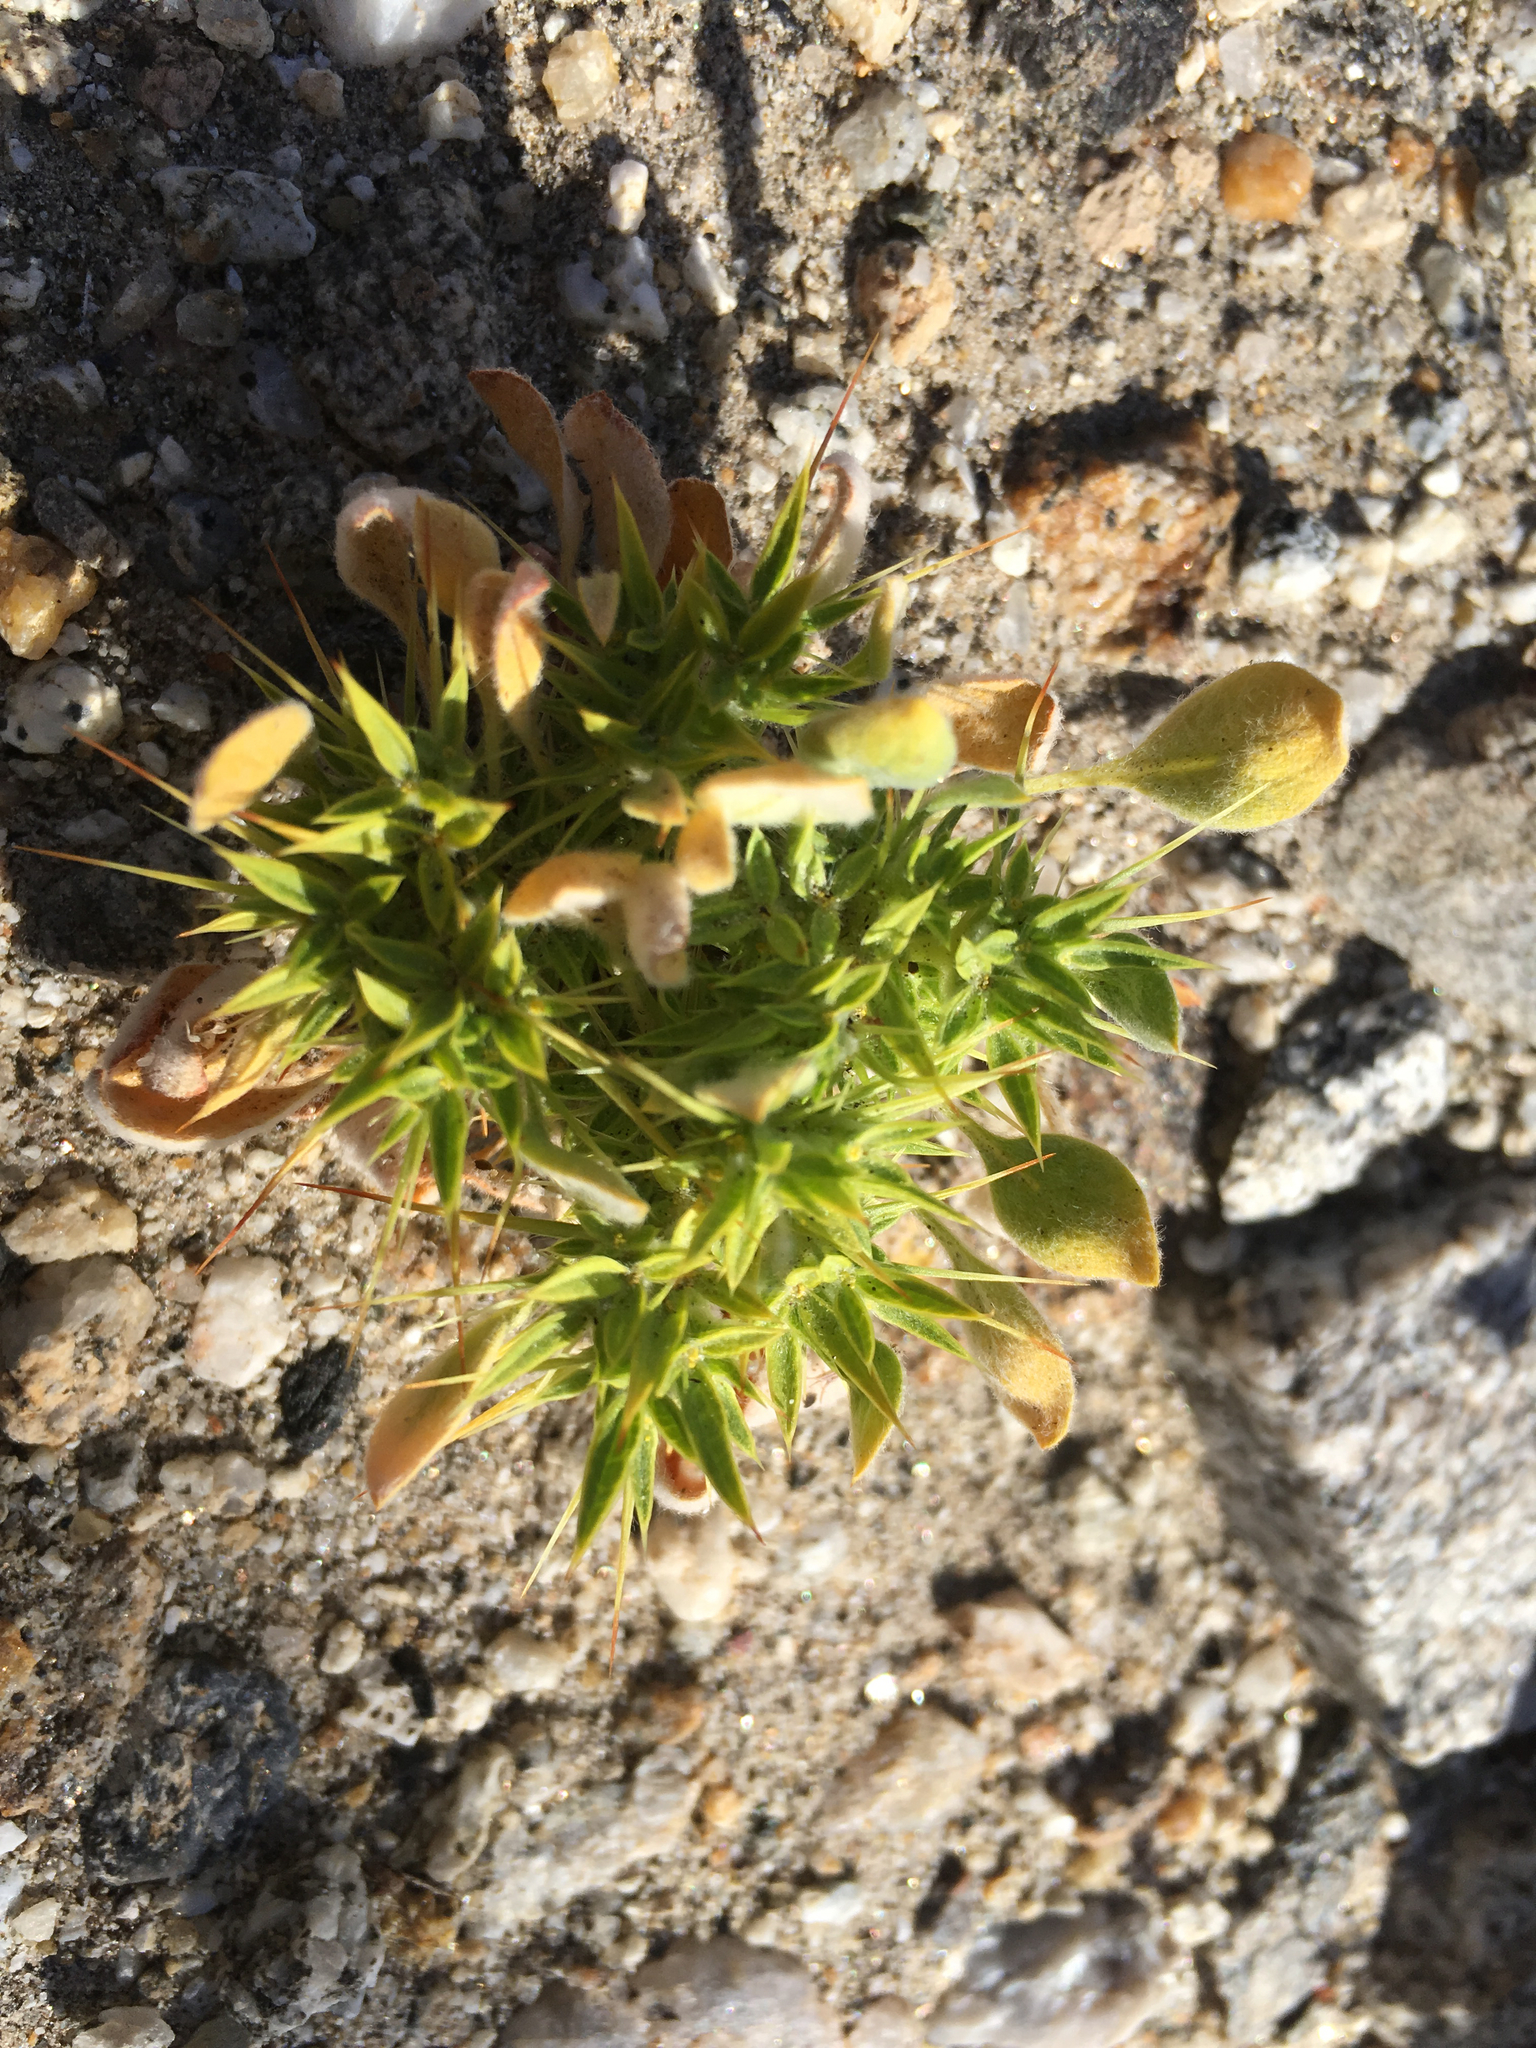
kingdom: Plantae
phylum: Tracheophyta
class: Magnoliopsida
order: Caryophyllales
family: Polygonaceae
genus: Chorizanthe
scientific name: Chorizanthe rigida
